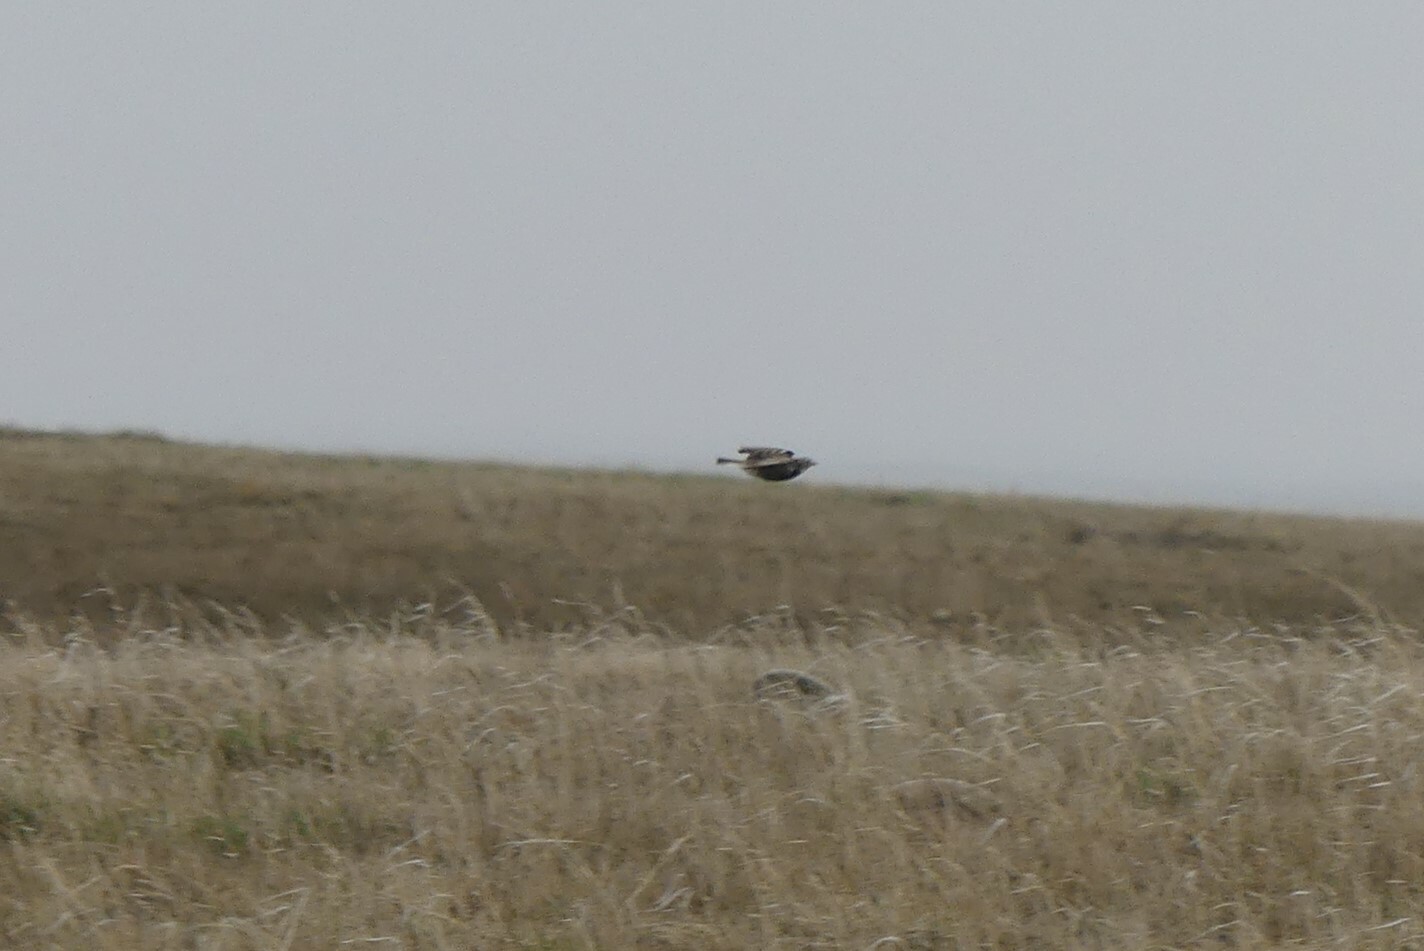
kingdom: Animalia
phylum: Chordata
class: Aves
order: Passeriformes
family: Calcariidae
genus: Calcarius
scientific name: Calcarius ornatus
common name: Chestnut-collared longspur
